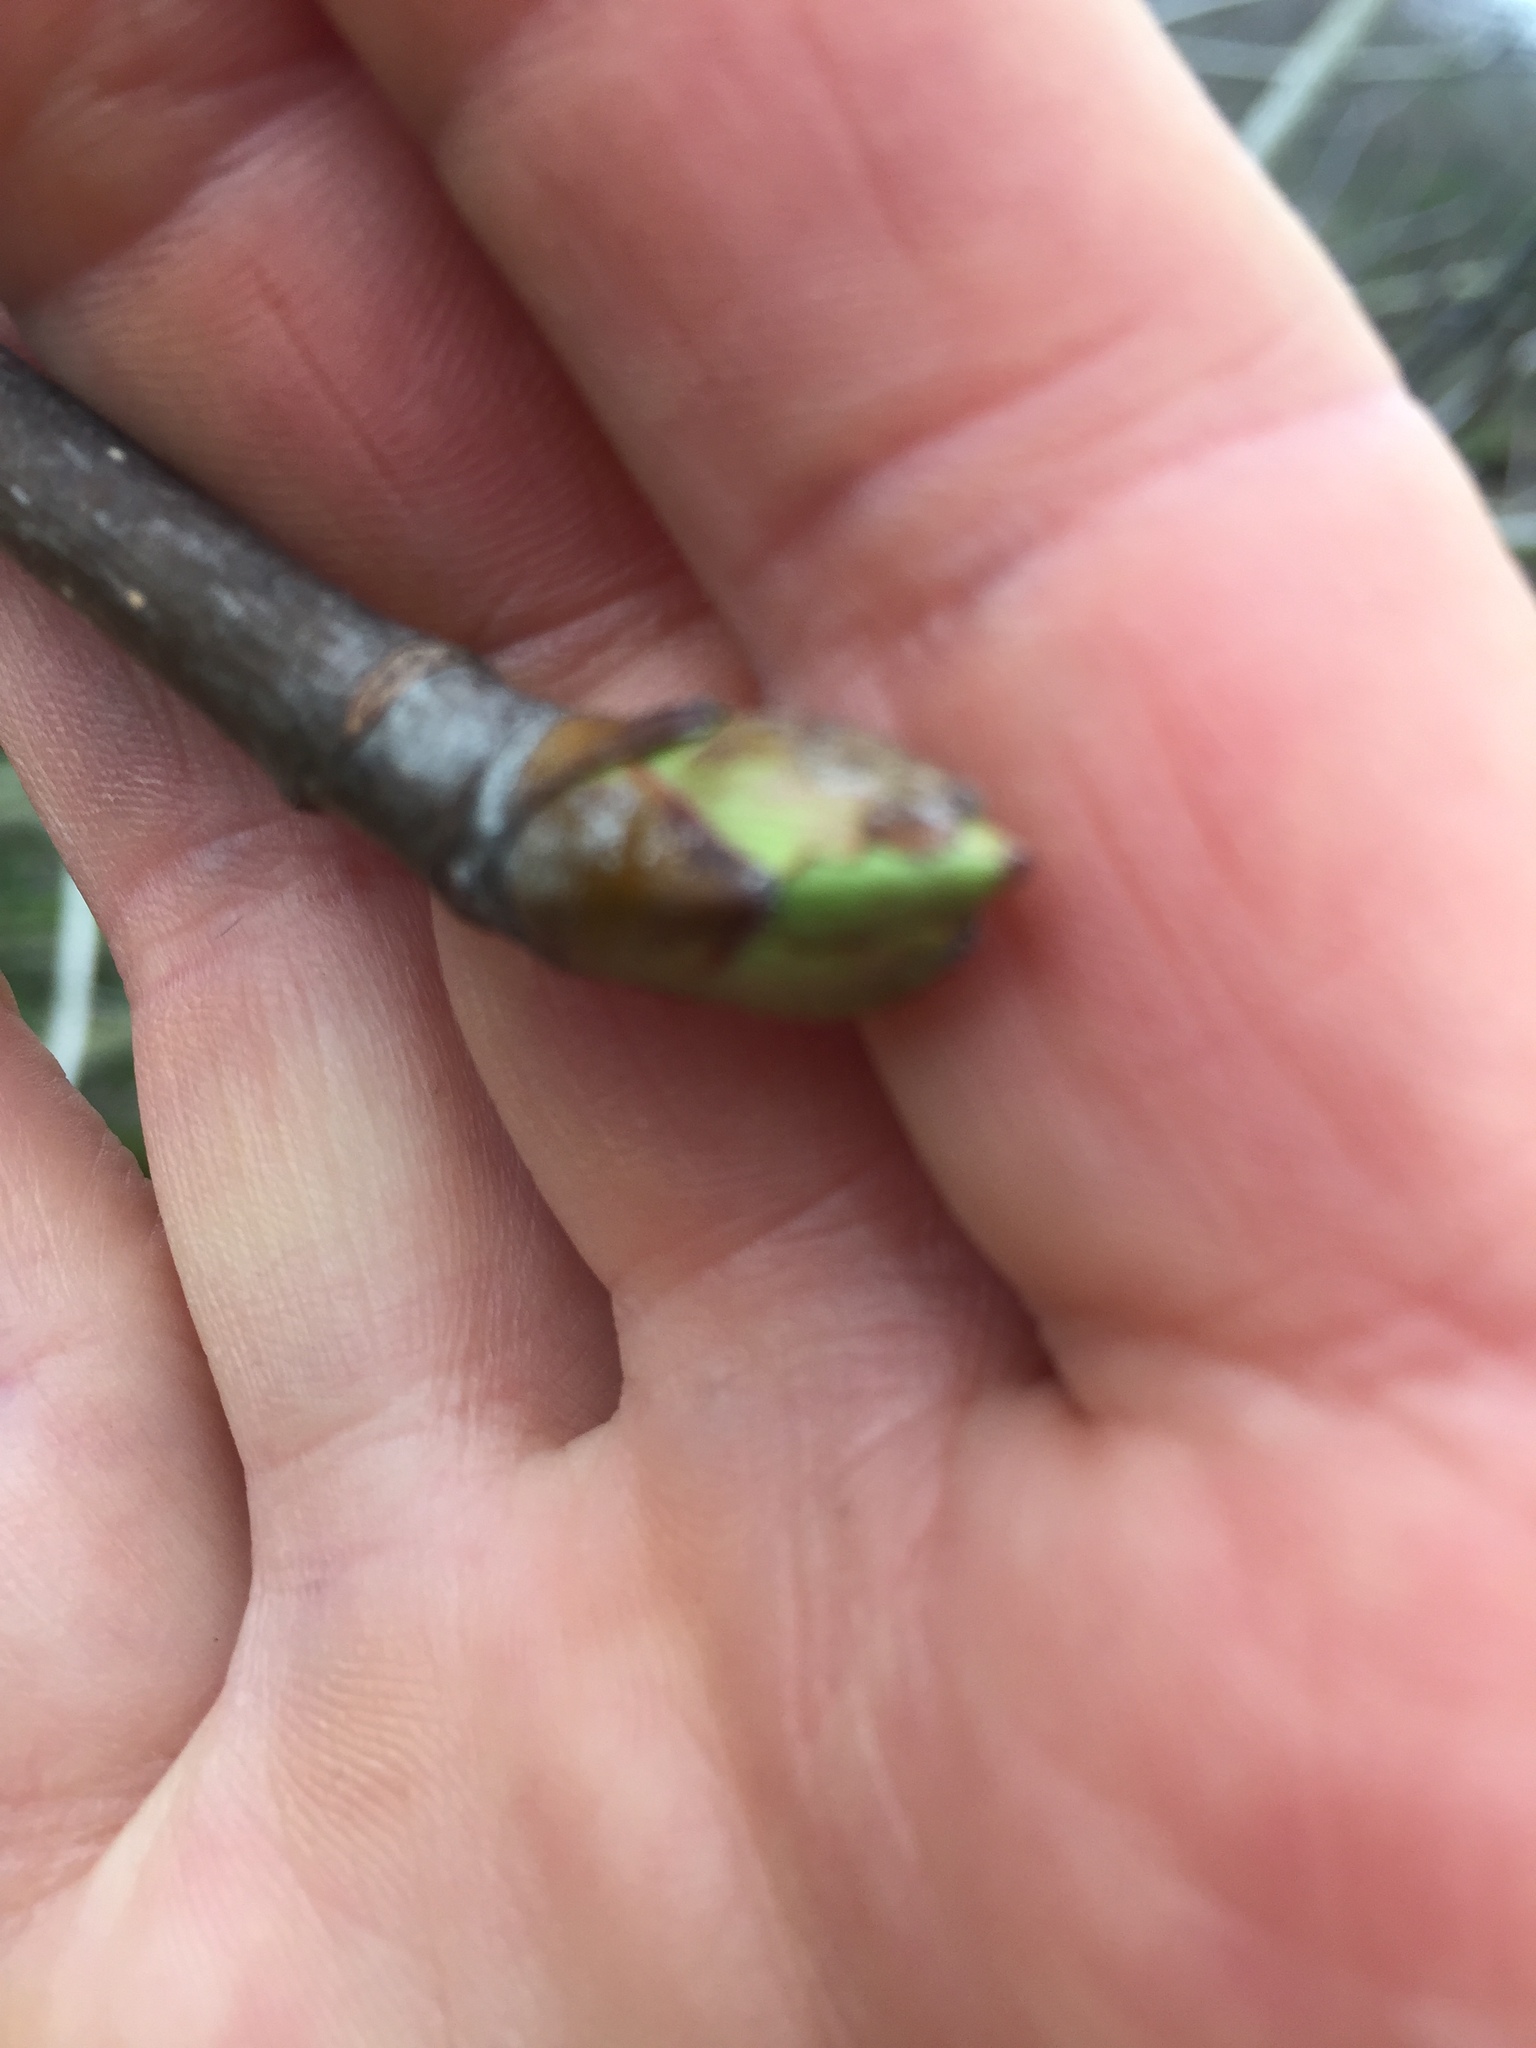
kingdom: Plantae
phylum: Tracheophyta
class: Magnoliopsida
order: Sapindales
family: Sapindaceae
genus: Aesculus
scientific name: Aesculus californica
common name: California buckeye
